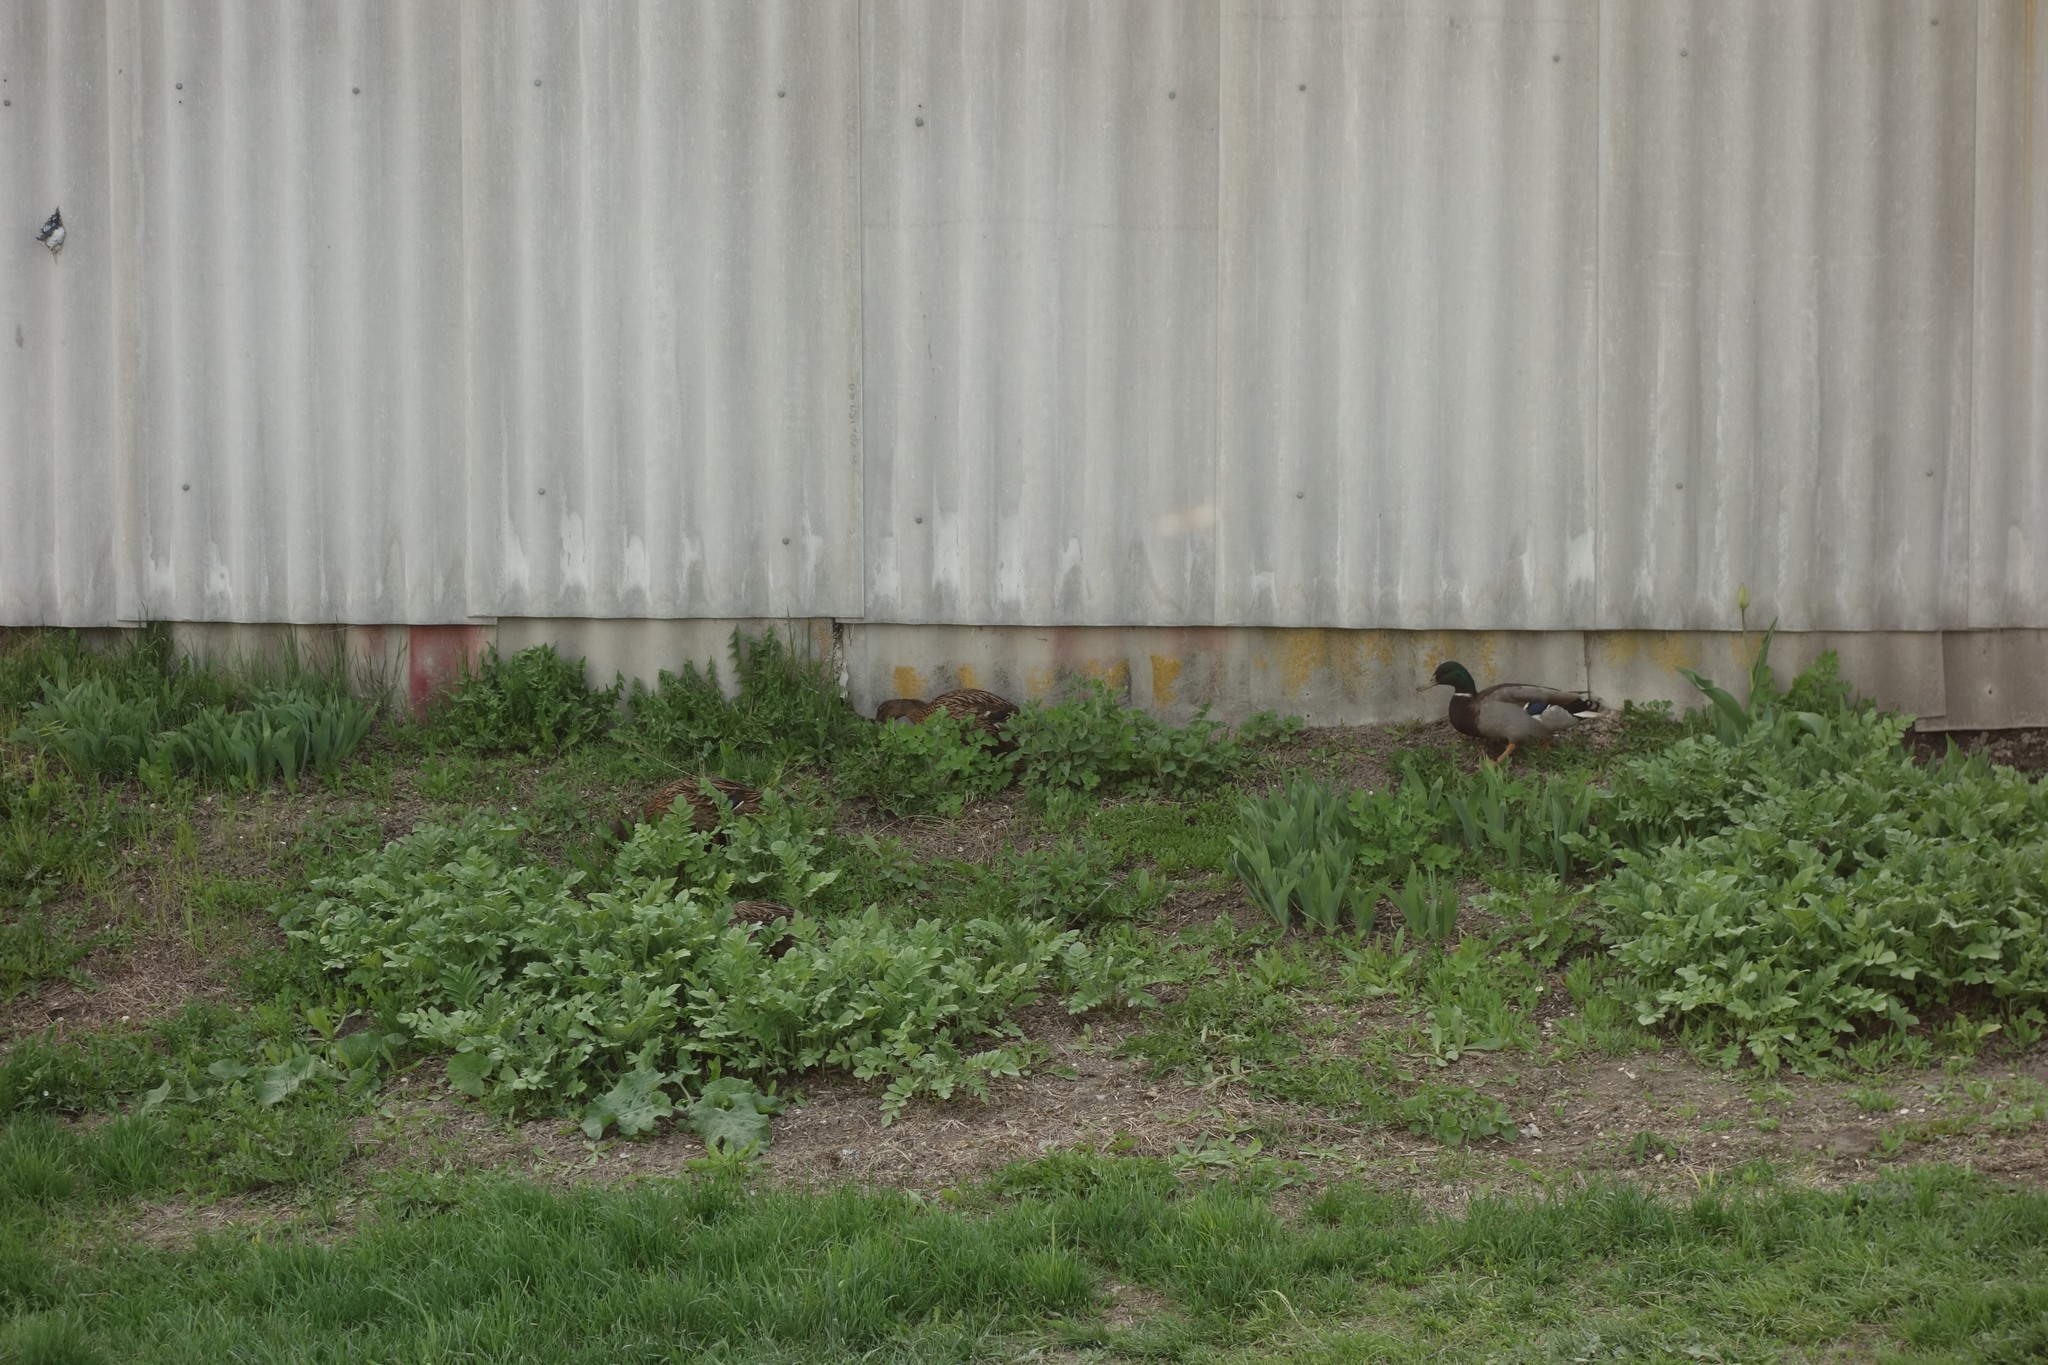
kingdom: Animalia
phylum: Chordata
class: Aves
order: Anseriformes
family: Anatidae
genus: Anas
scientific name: Anas platyrhynchos
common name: Mallard
